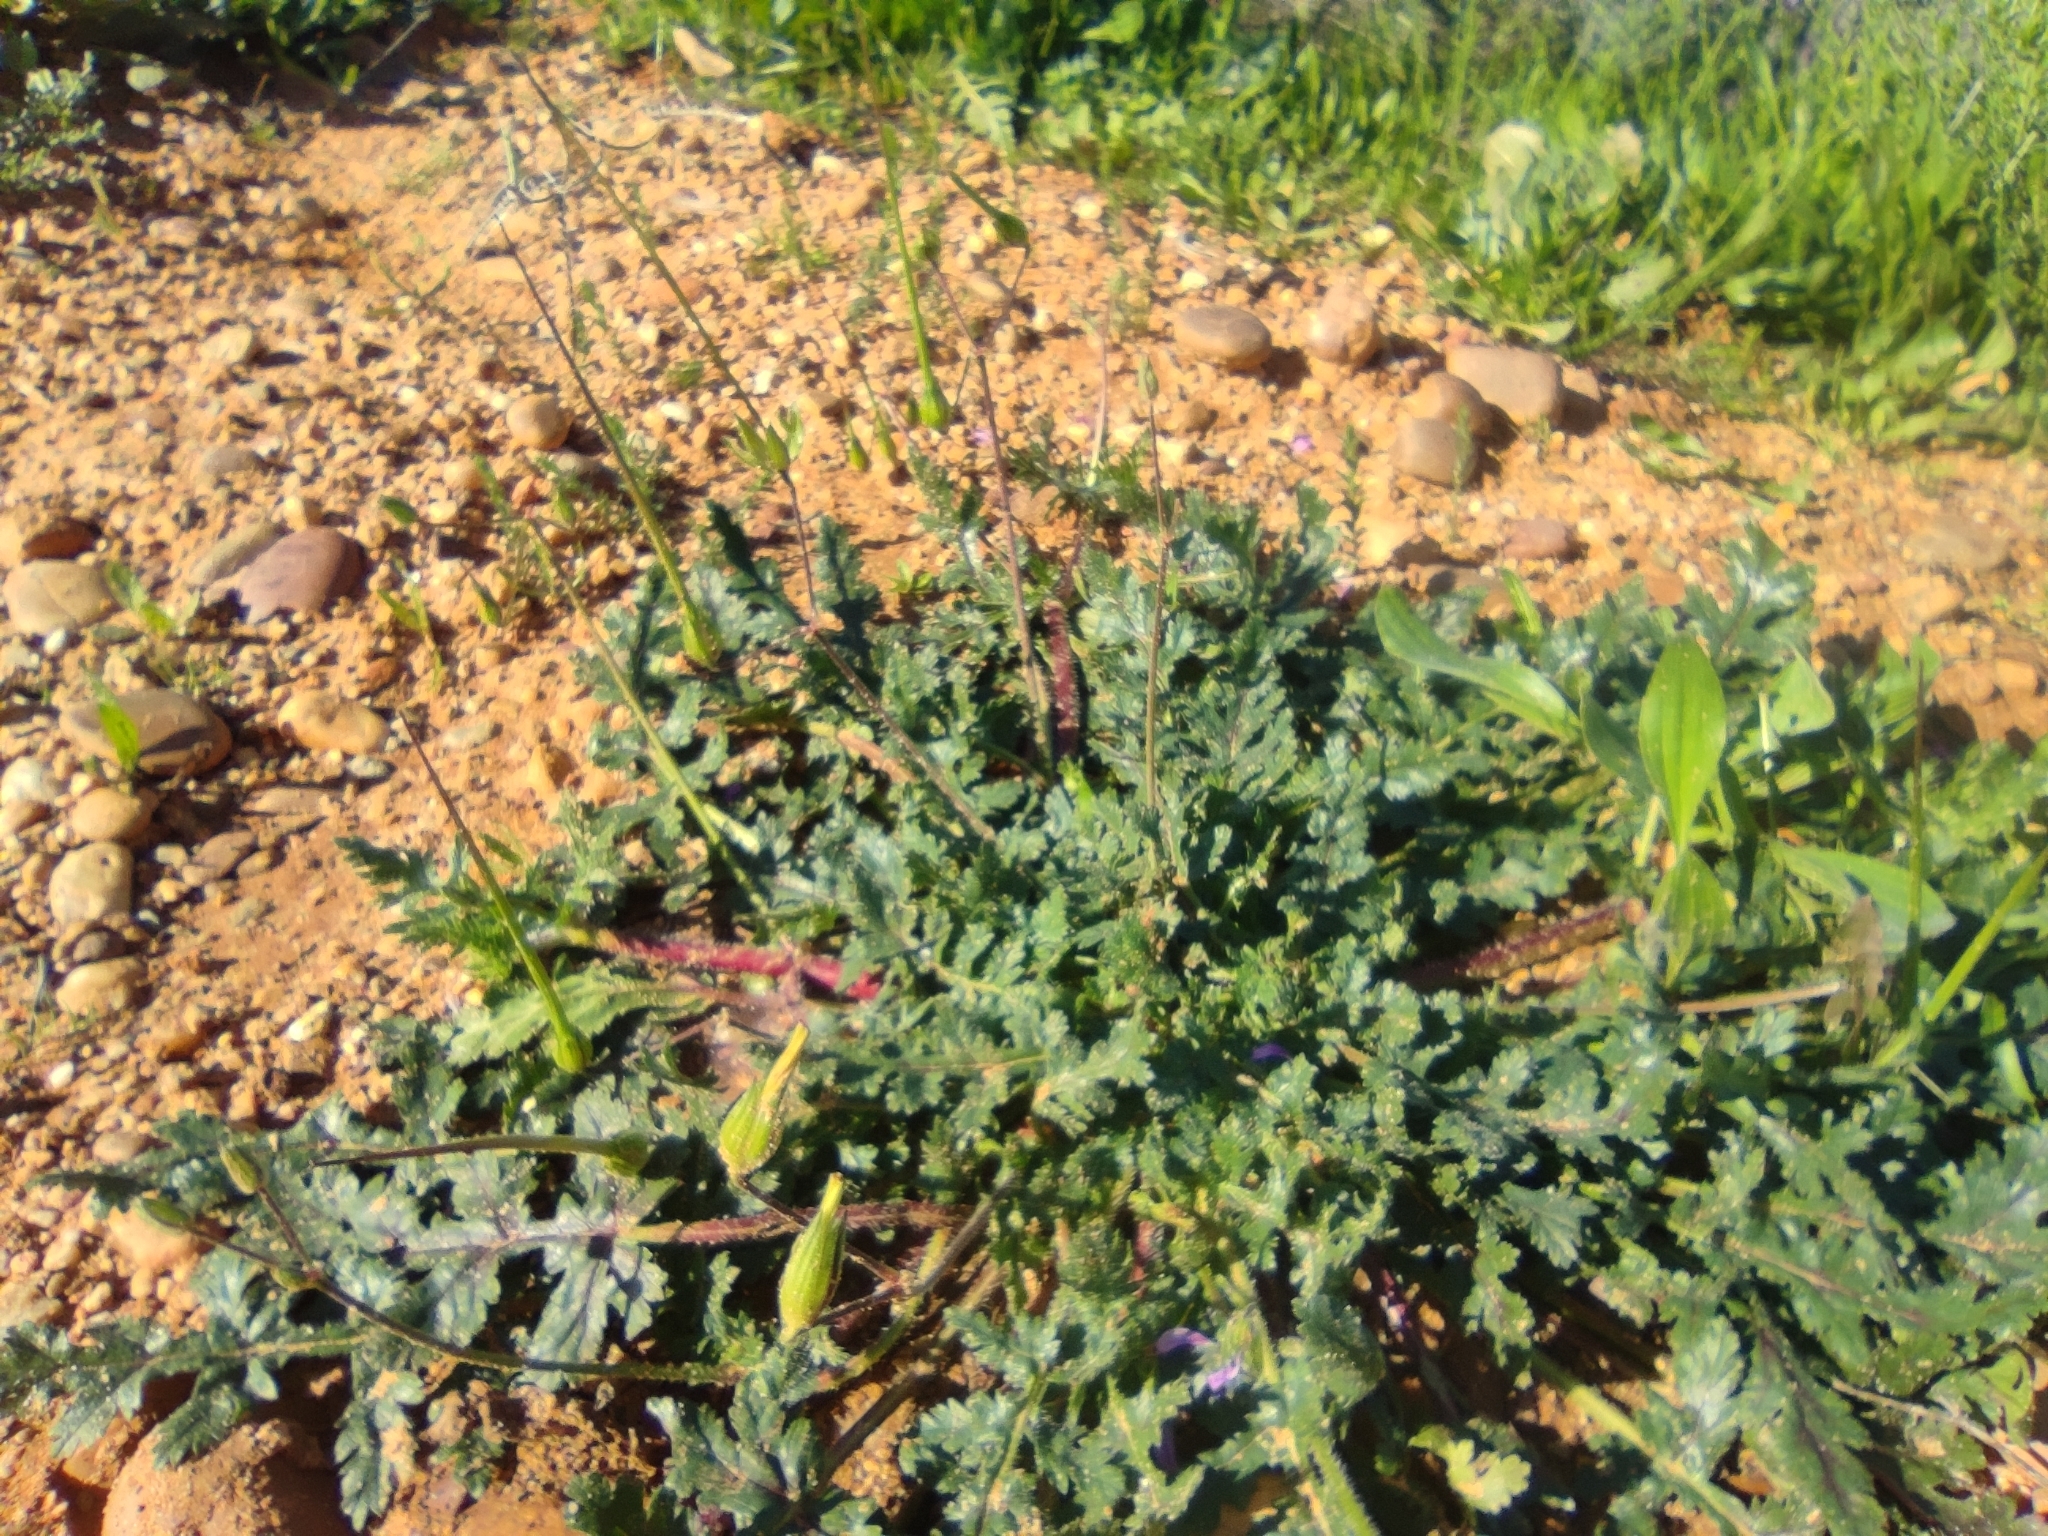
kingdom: Plantae
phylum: Tracheophyta
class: Magnoliopsida
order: Geraniales
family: Geraniaceae
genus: Erodium
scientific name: Erodium botrys
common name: Mediterranean stork's-bill
